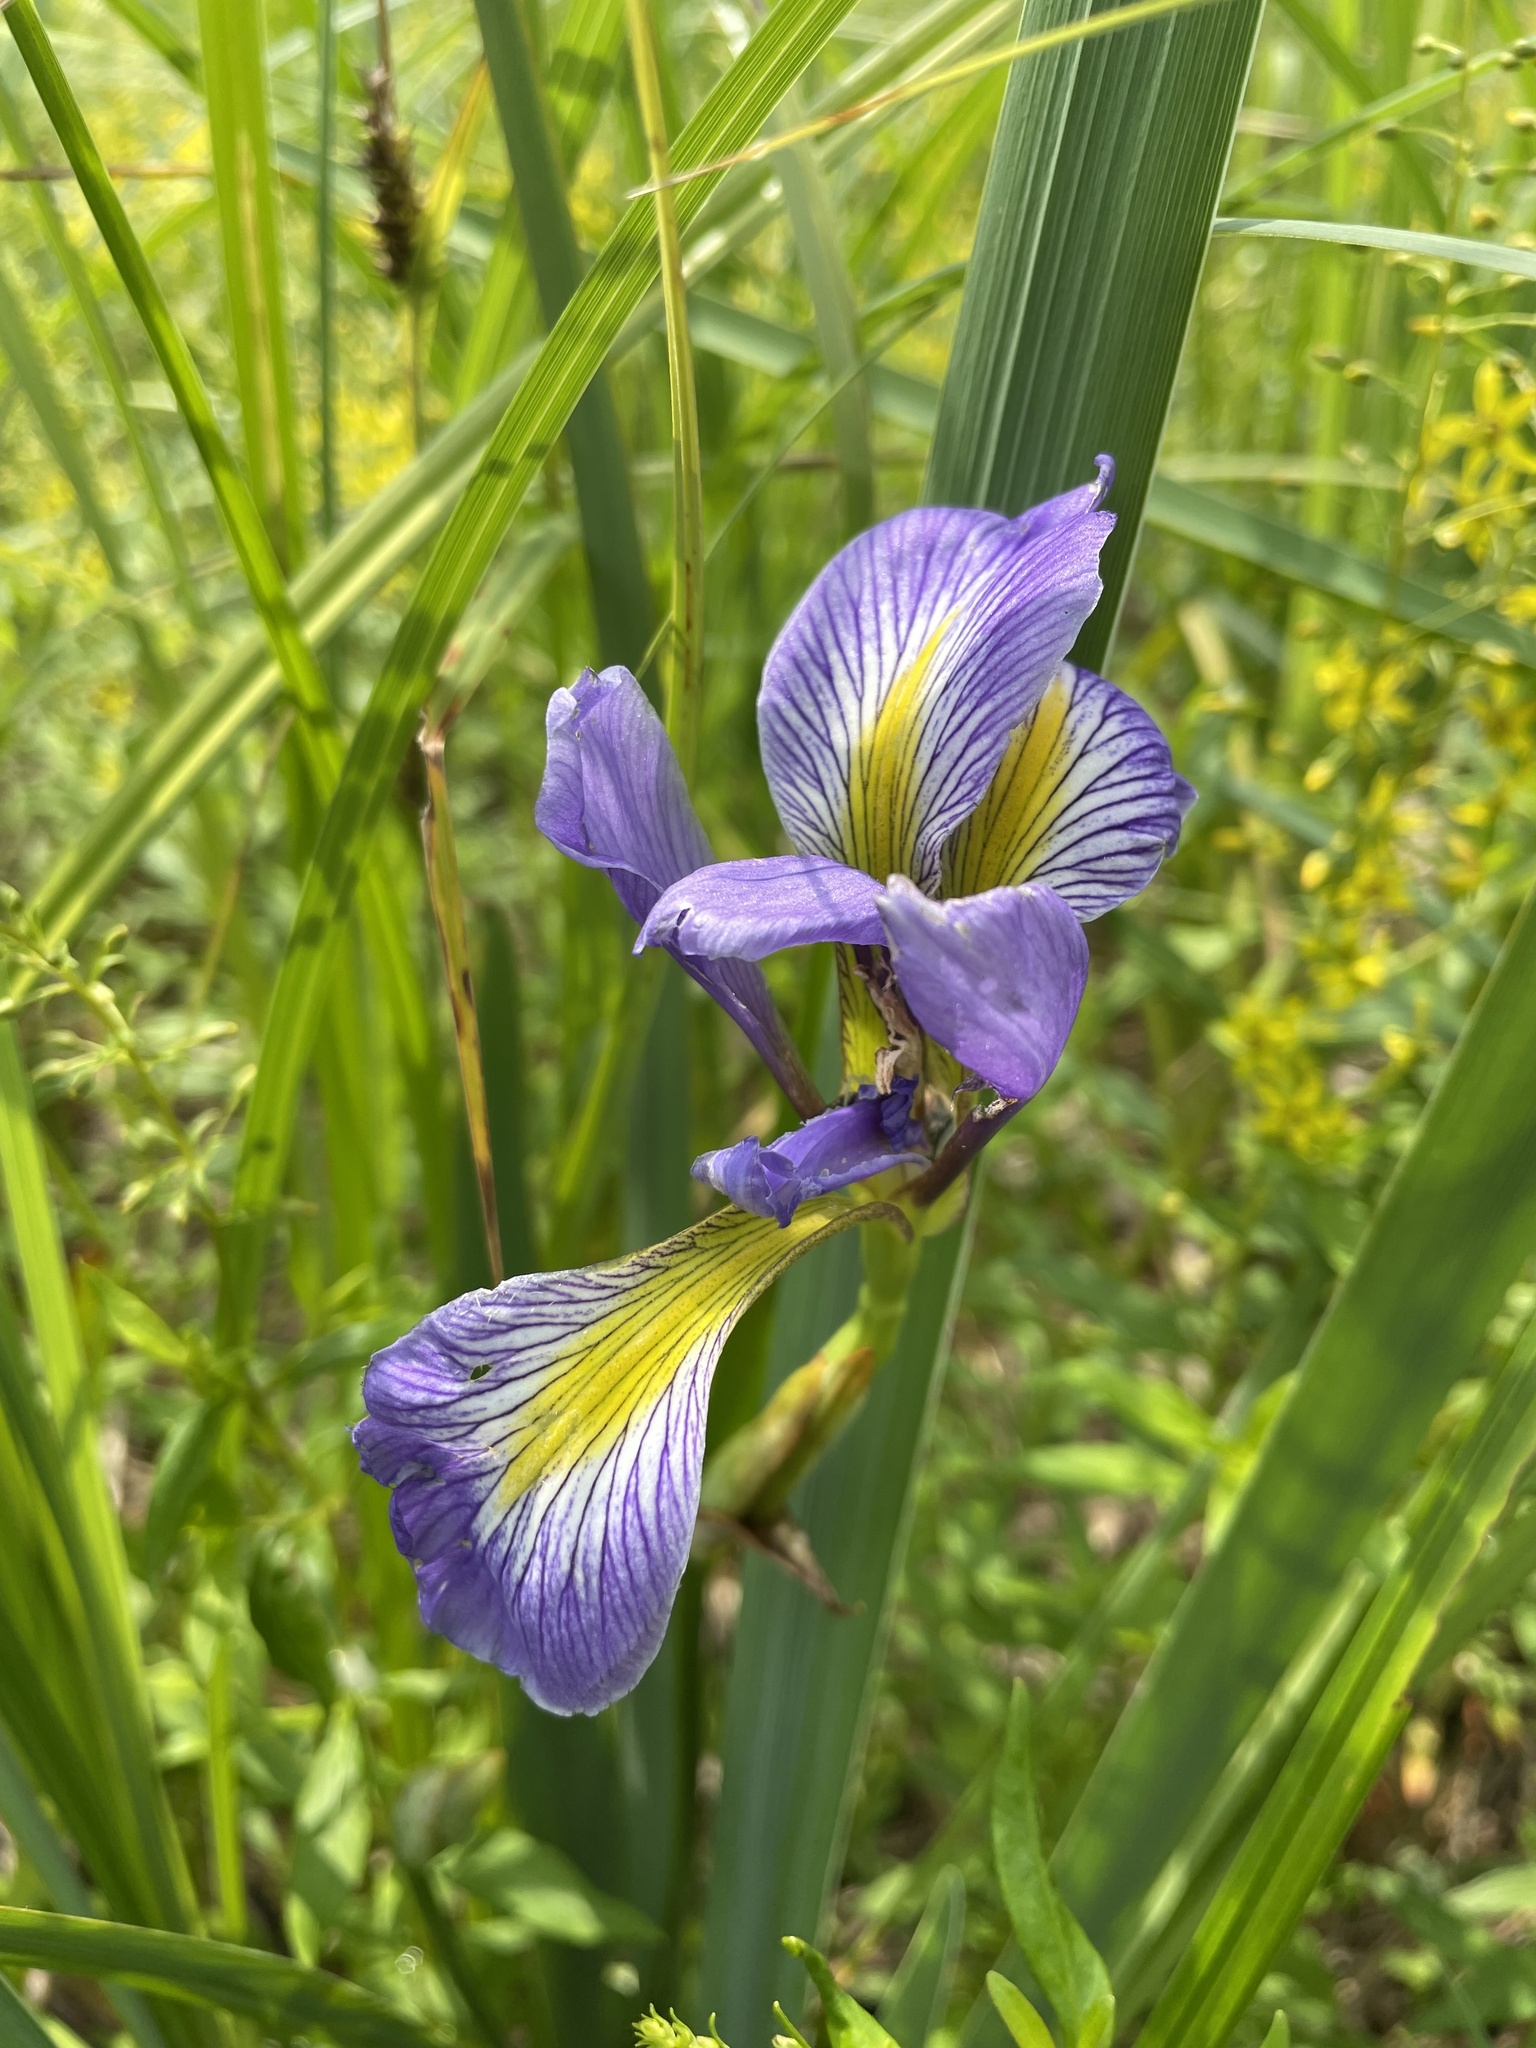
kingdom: Plantae
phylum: Tracheophyta
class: Liliopsida
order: Asparagales
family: Iridaceae
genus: Iris
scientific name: Iris virginica
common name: Southern blue flag
